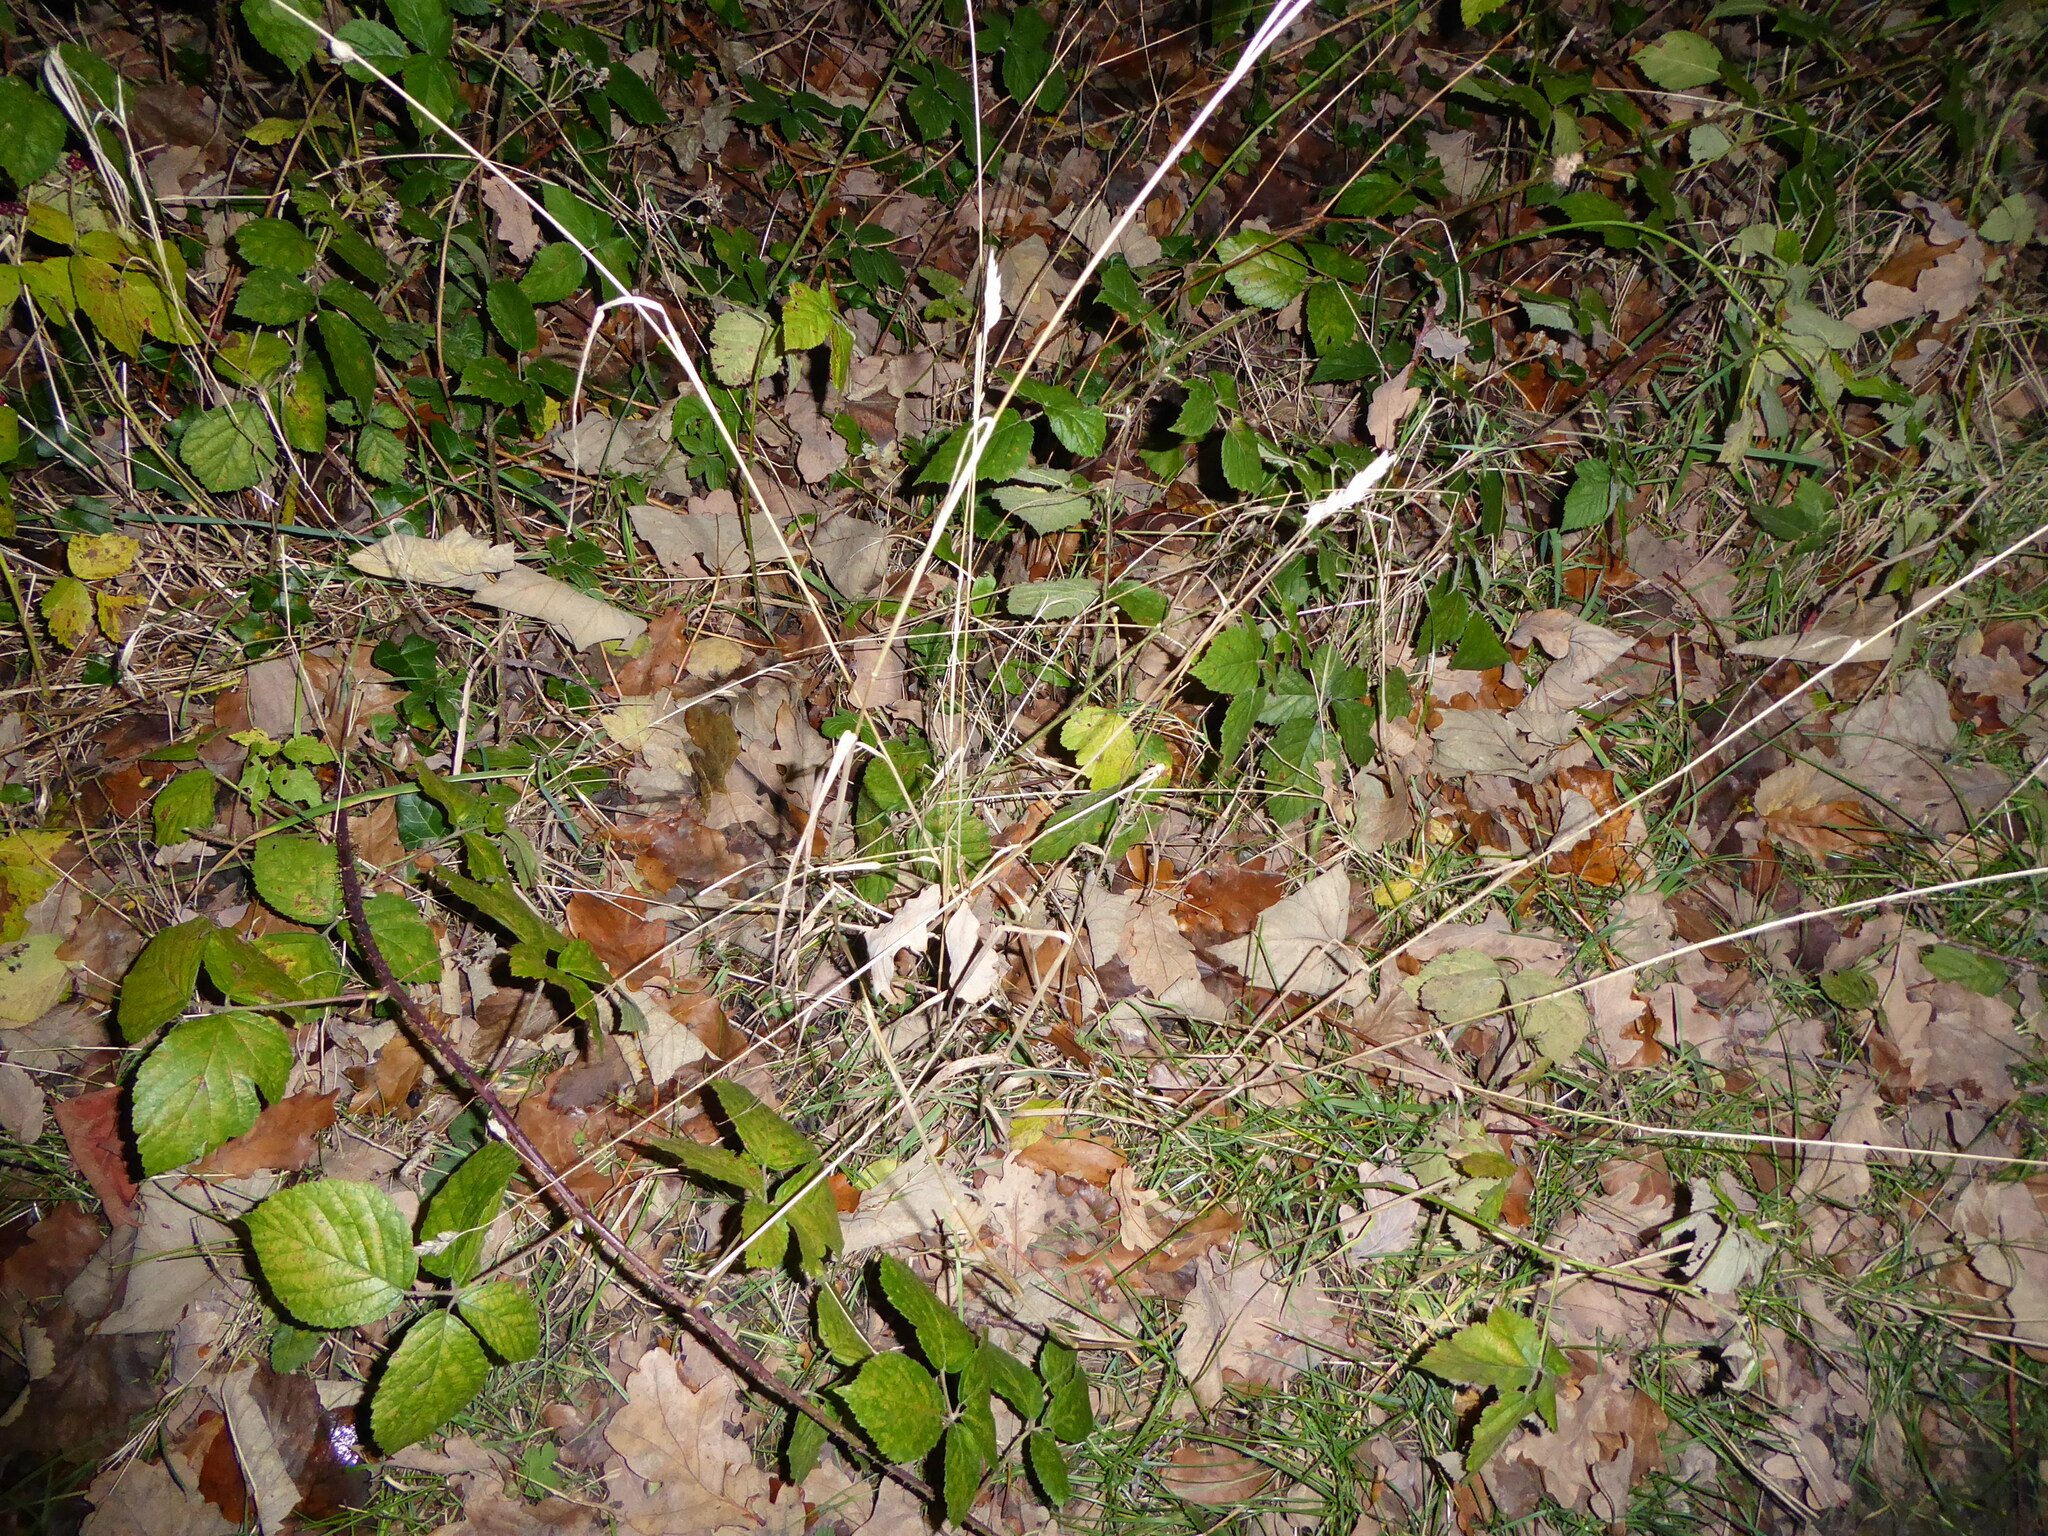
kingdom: Plantae
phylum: Tracheophyta
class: Liliopsida
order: Poales
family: Poaceae
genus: Dactylis
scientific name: Dactylis glomerata
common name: Orchardgrass
